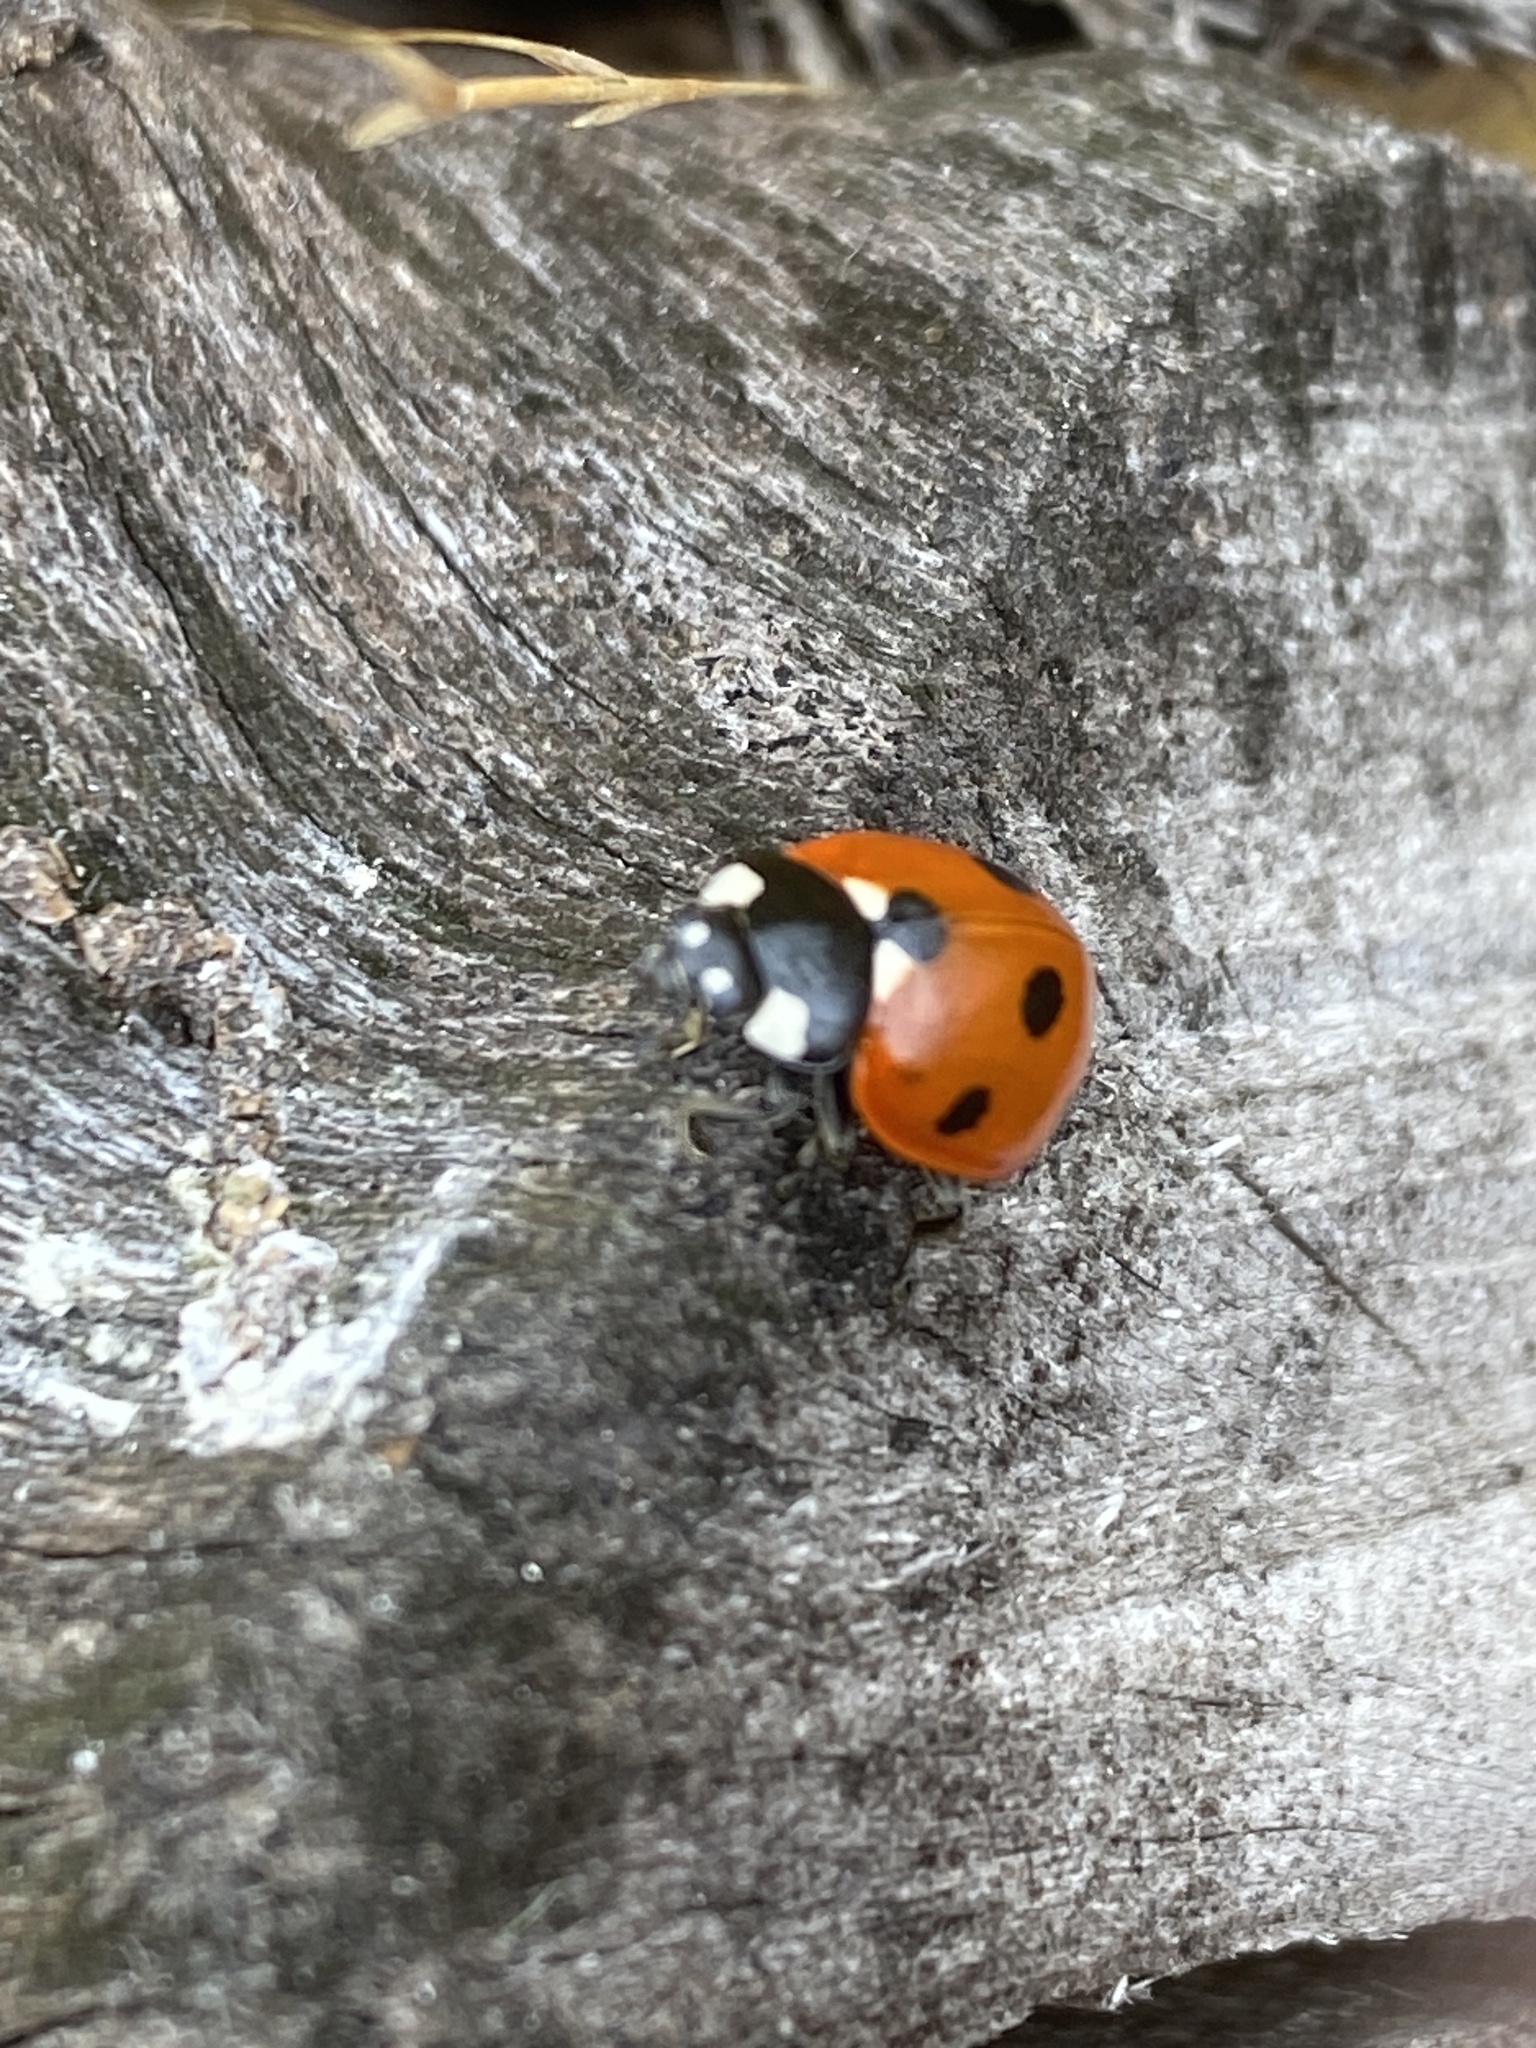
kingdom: Animalia
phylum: Arthropoda
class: Insecta
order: Coleoptera
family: Coccinellidae
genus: Coccinella
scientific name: Coccinella septempunctata
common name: Sevenspotted lady beetle
